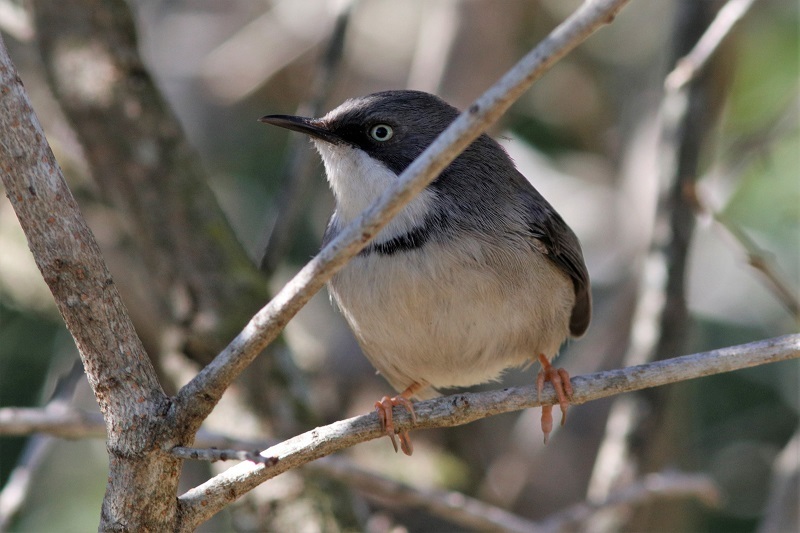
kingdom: Animalia
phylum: Chordata
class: Aves
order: Passeriformes
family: Cisticolidae
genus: Apalis
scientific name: Apalis thoracica
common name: Bar-throated apalis
